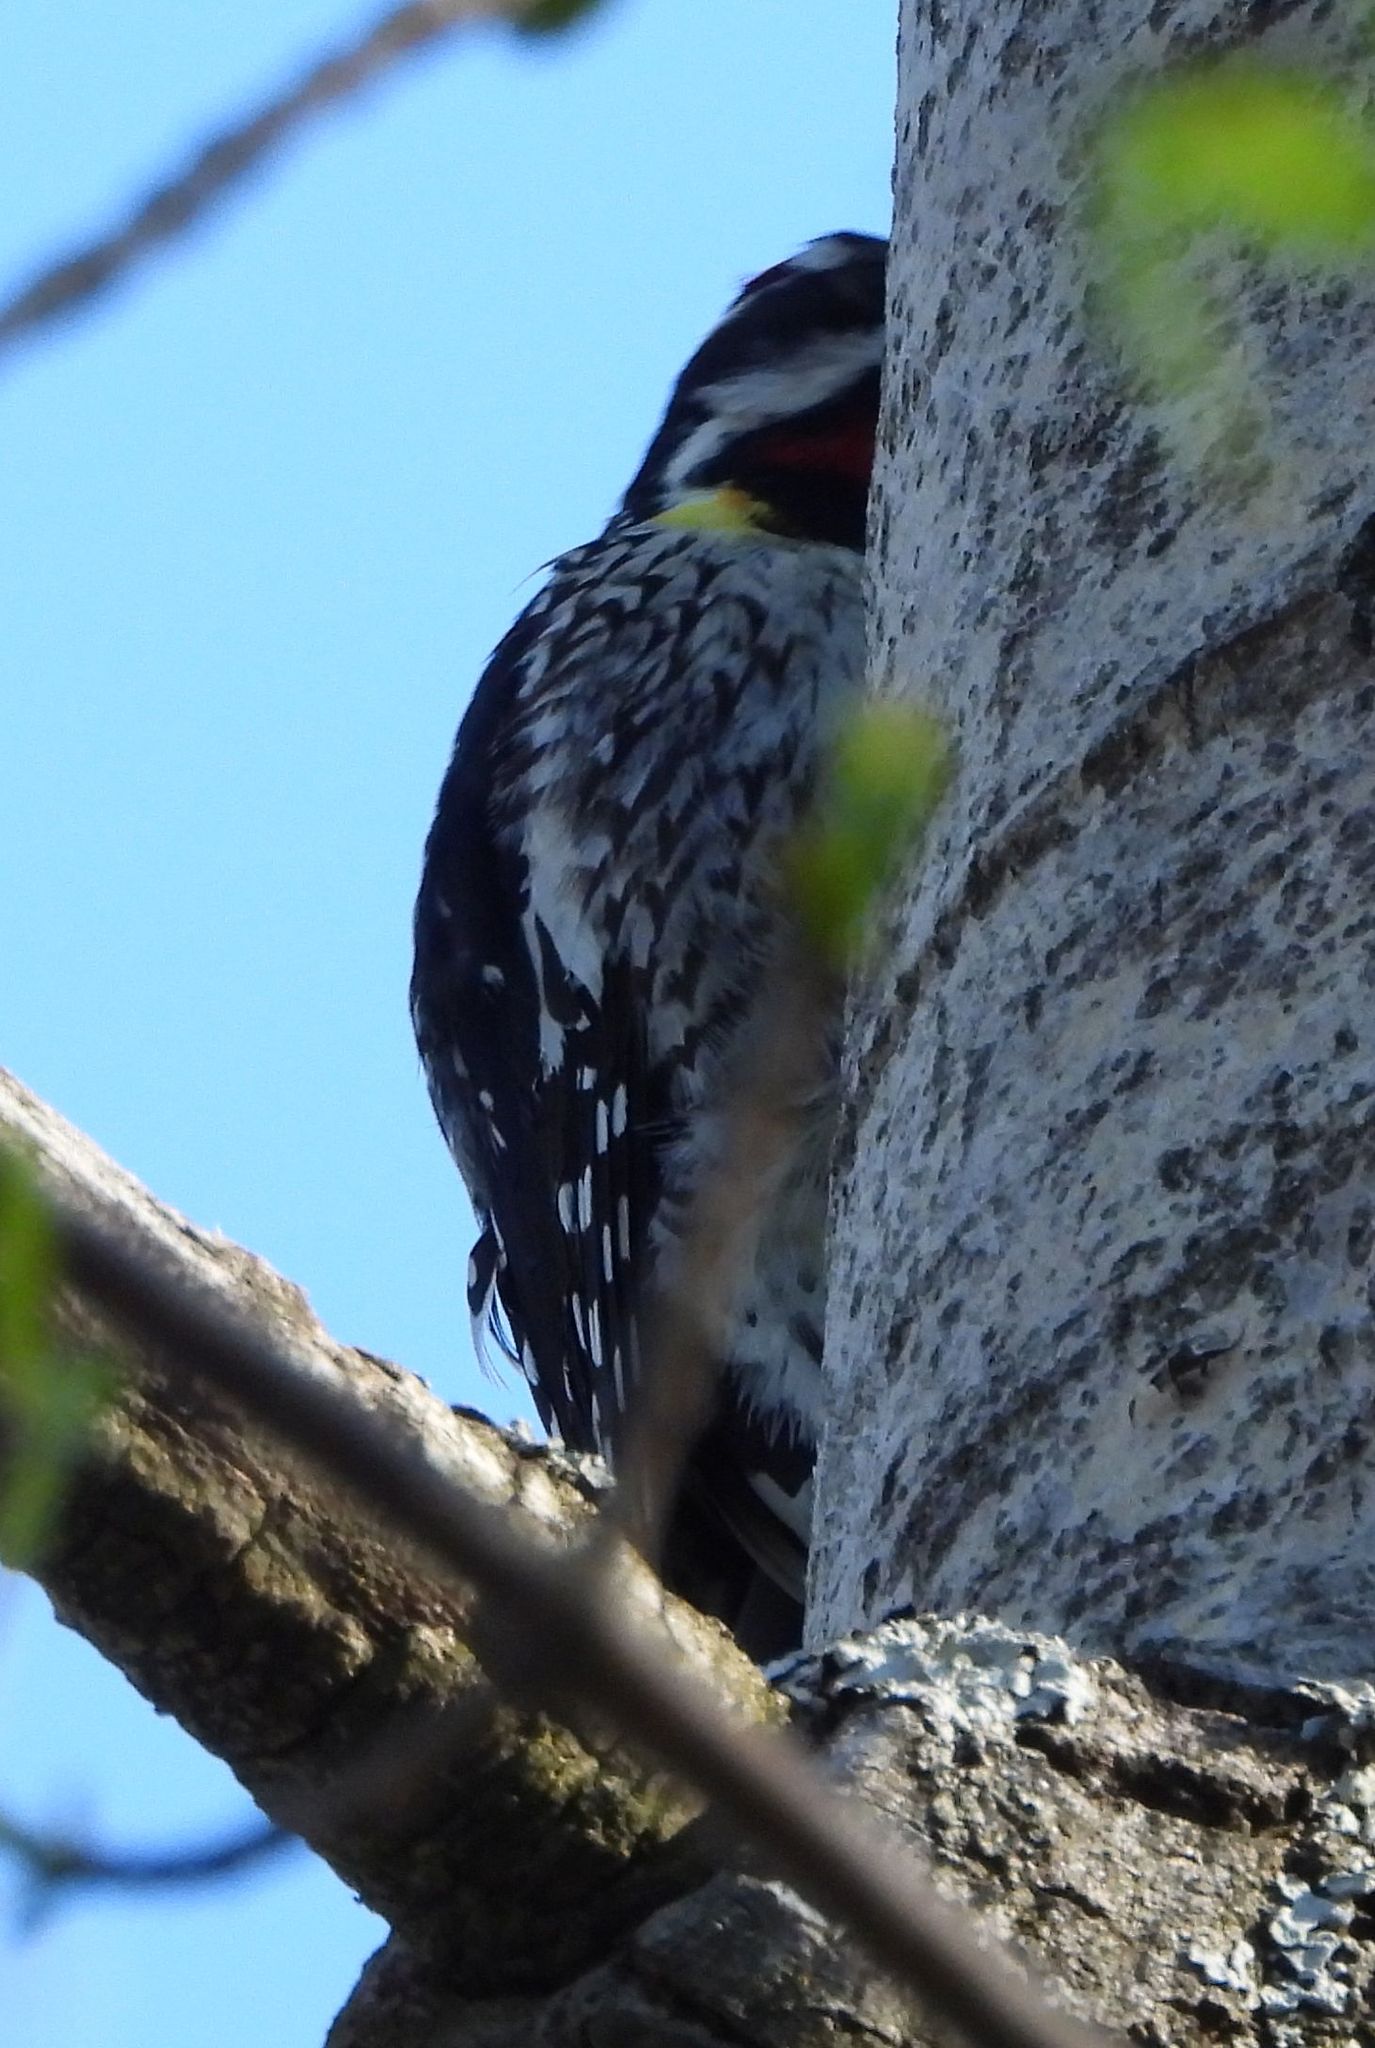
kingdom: Animalia
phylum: Chordata
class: Aves
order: Piciformes
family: Picidae
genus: Sphyrapicus
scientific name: Sphyrapicus varius
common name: Yellow-bellied sapsucker
